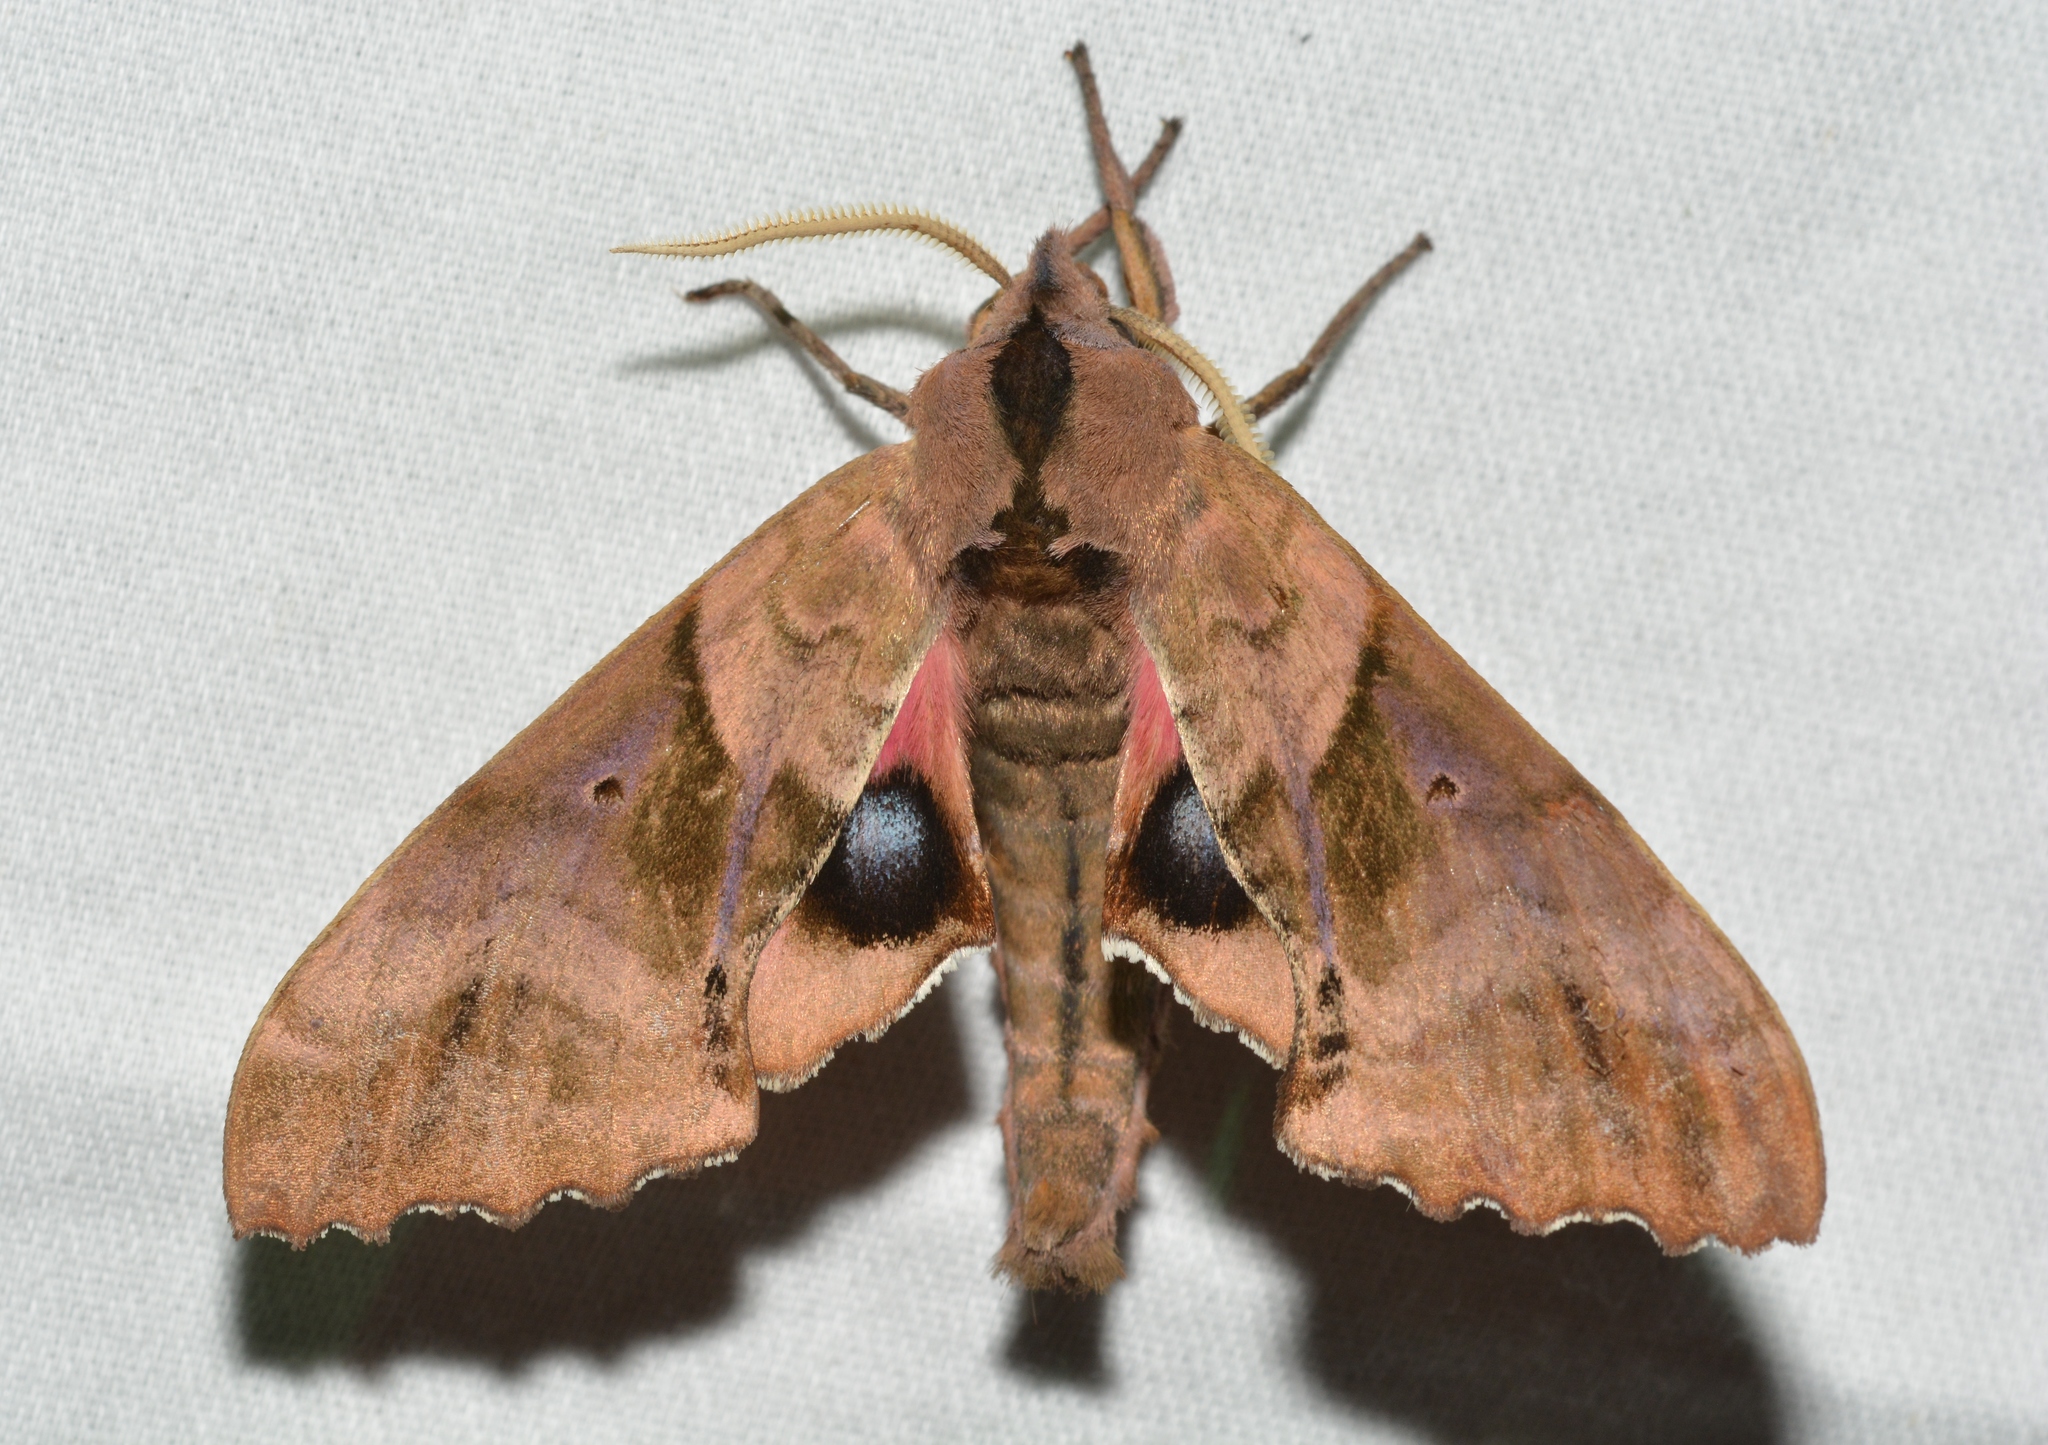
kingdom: Animalia
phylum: Arthropoda
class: Insecta
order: Lepidoptera
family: Sphingidae
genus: Paonias
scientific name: Paonias excaecata
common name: Blind-eyed sphinx
